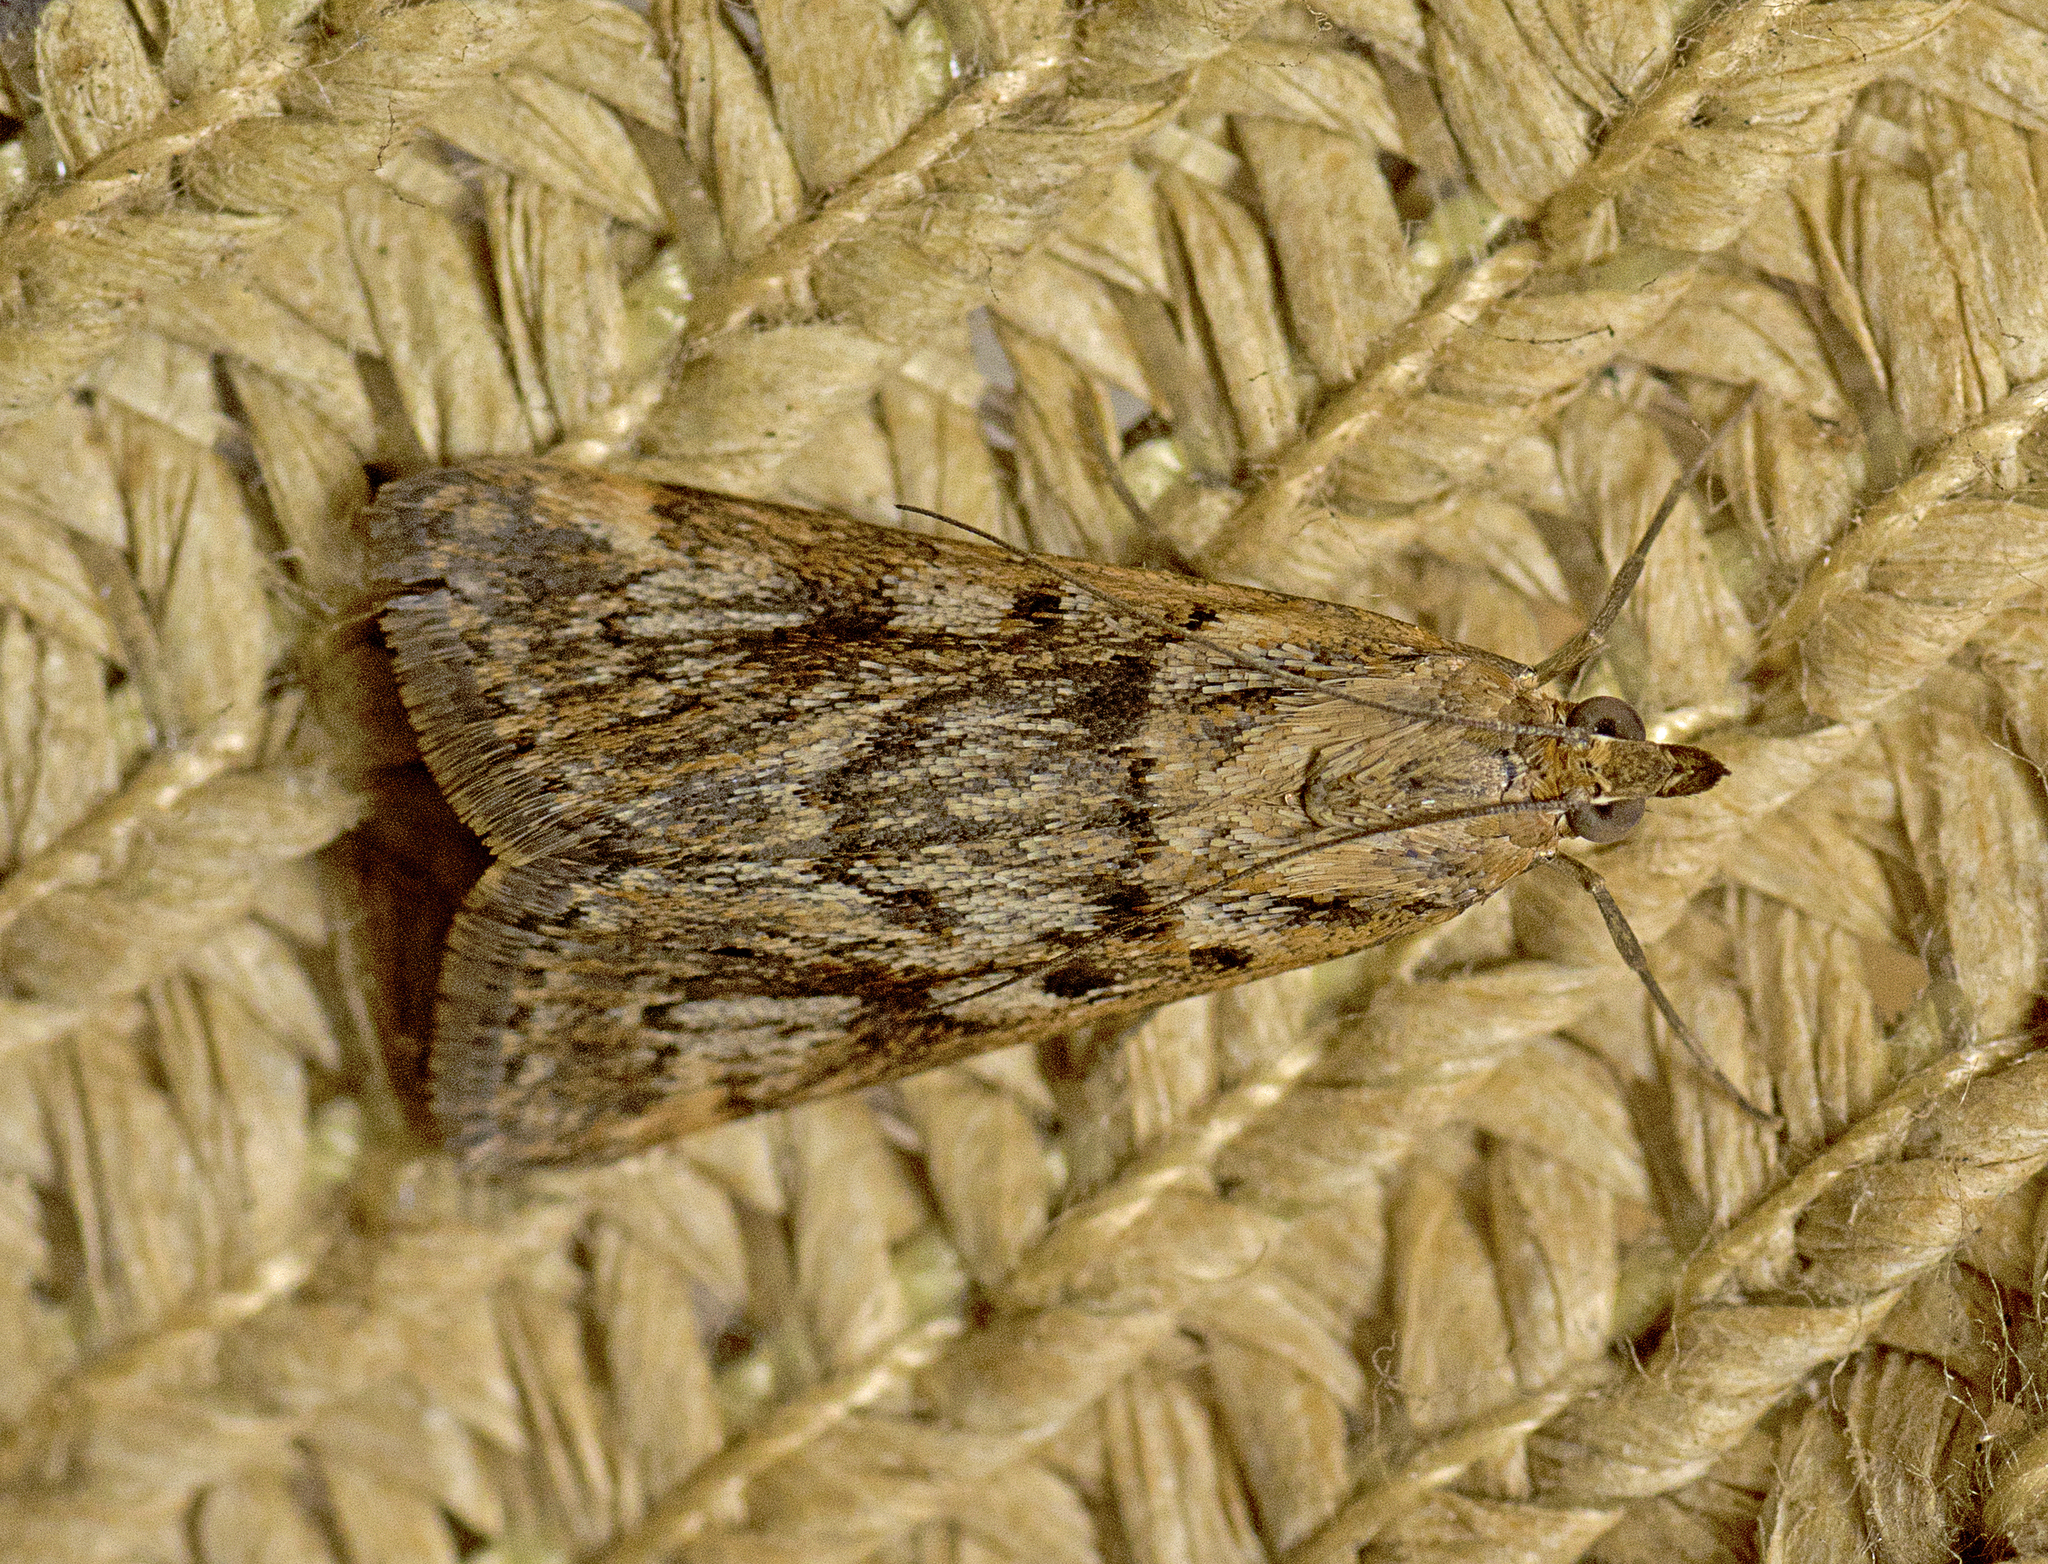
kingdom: Animalia
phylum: Arthropoda
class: Insecta
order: Lepidoptera
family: Crambidae
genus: Achyra
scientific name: Achyra affinitalis
